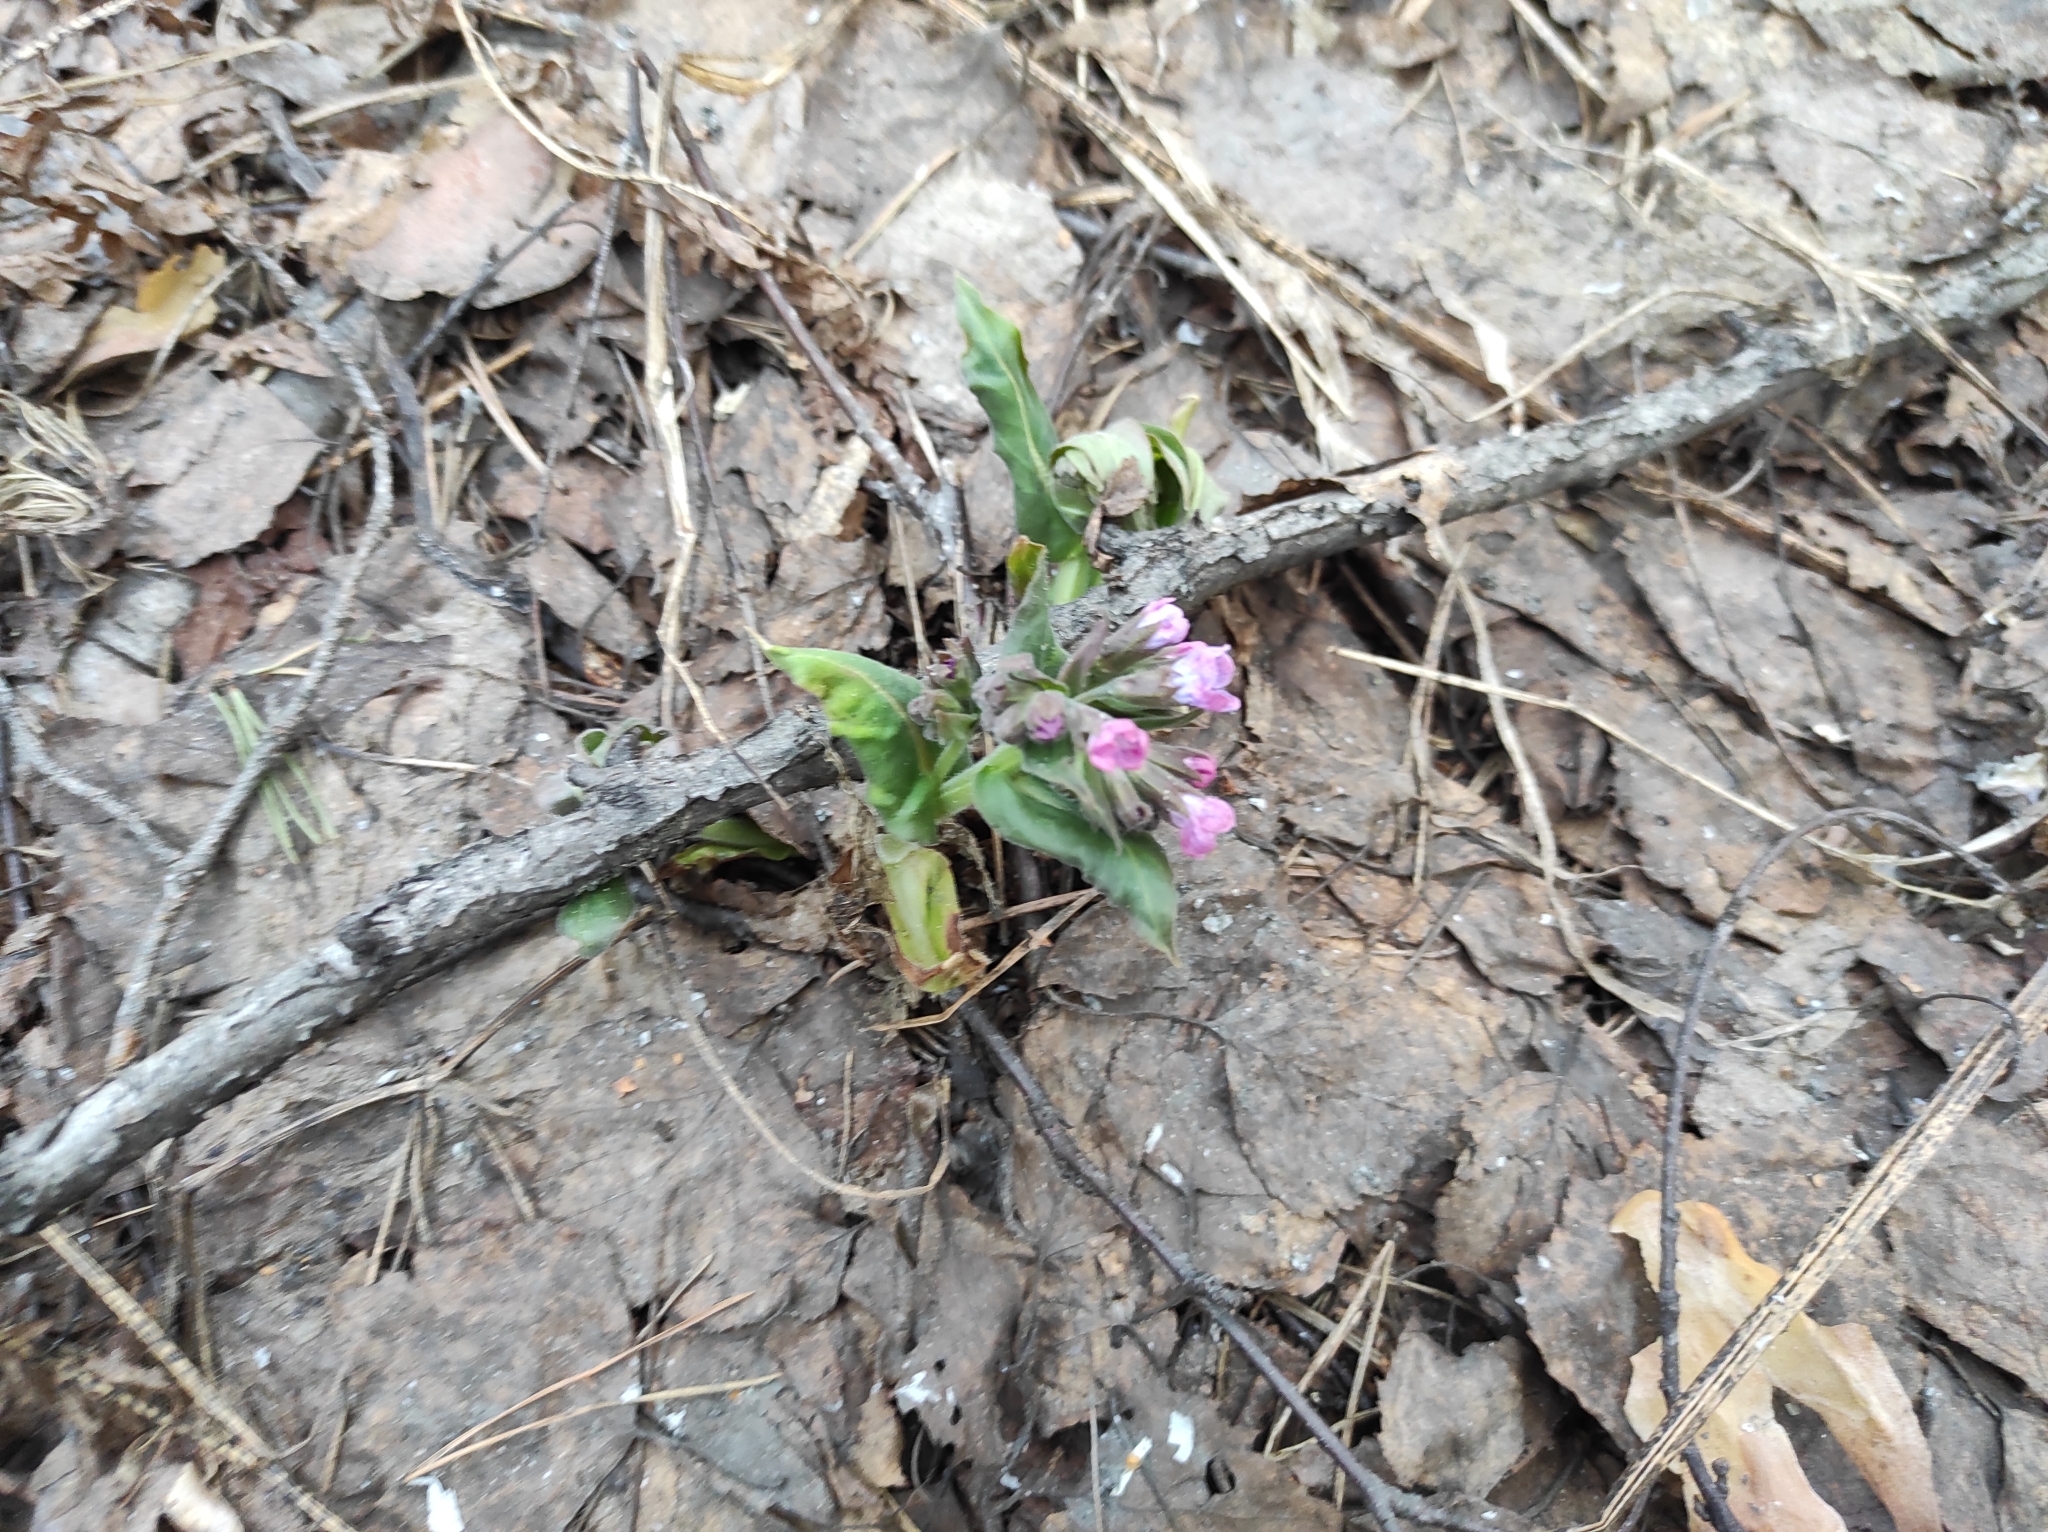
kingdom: Plantae
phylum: Tracheophyta
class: Magnoliopsida
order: Boraginales
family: Boraginaceae
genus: Pulmonaria
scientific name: Pulmonaria mollis
